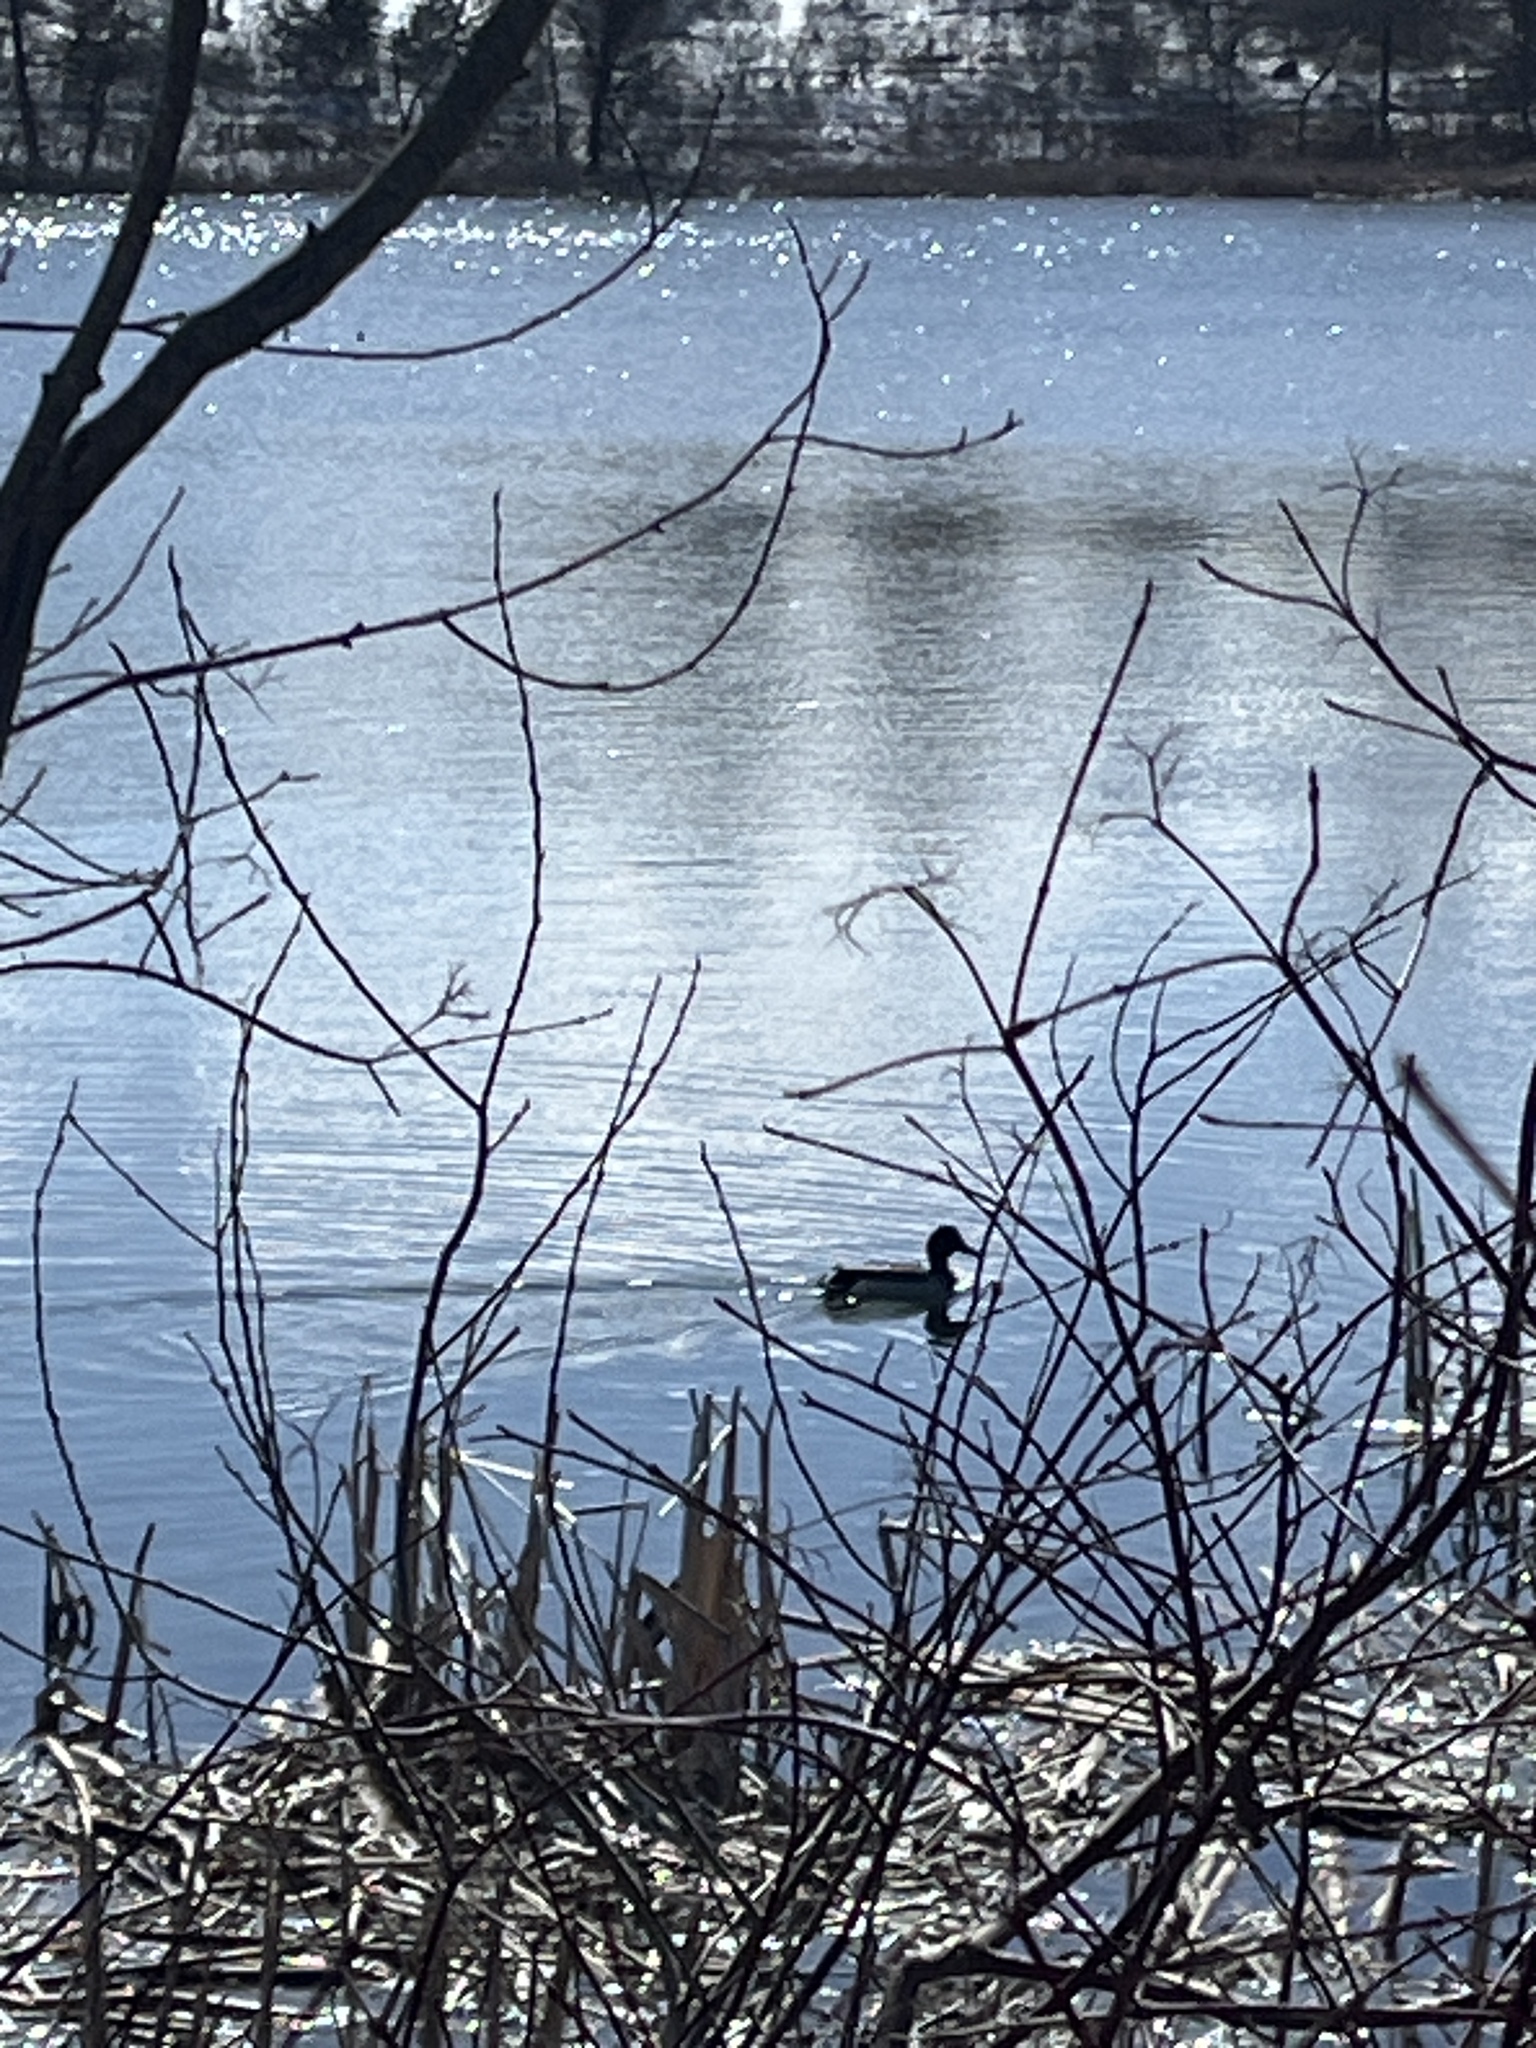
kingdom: Animalia
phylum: Chordata
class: Aves
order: Anseriformes
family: Anatidae
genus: Anas
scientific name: Anas platyrhynchos
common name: Mallard
